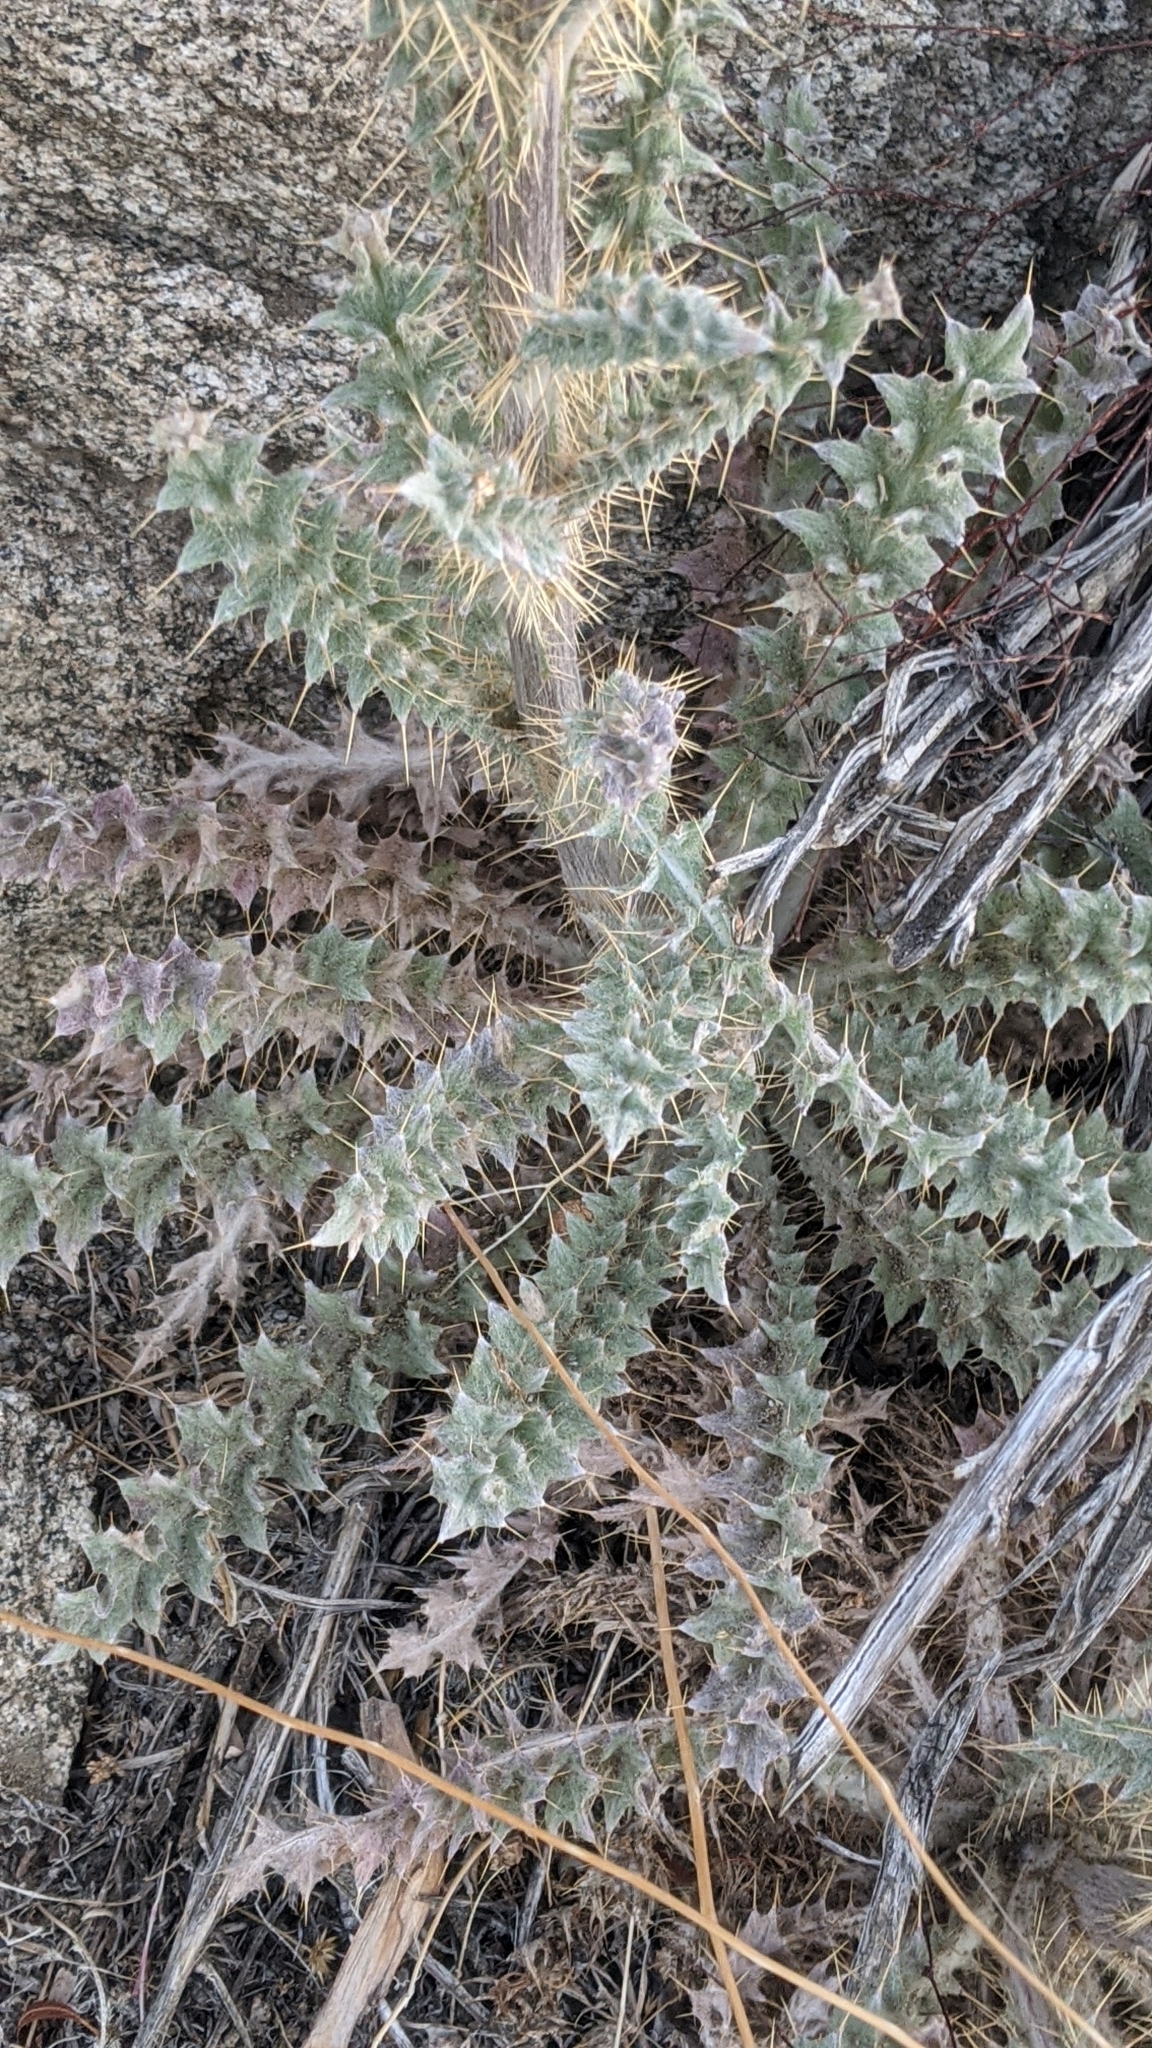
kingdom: Plantae
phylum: Tracheophyta
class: Magnoliopsida
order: Asterales
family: Asteraceae
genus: Cirsium
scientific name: Cirsium occidentale
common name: Western thistle
